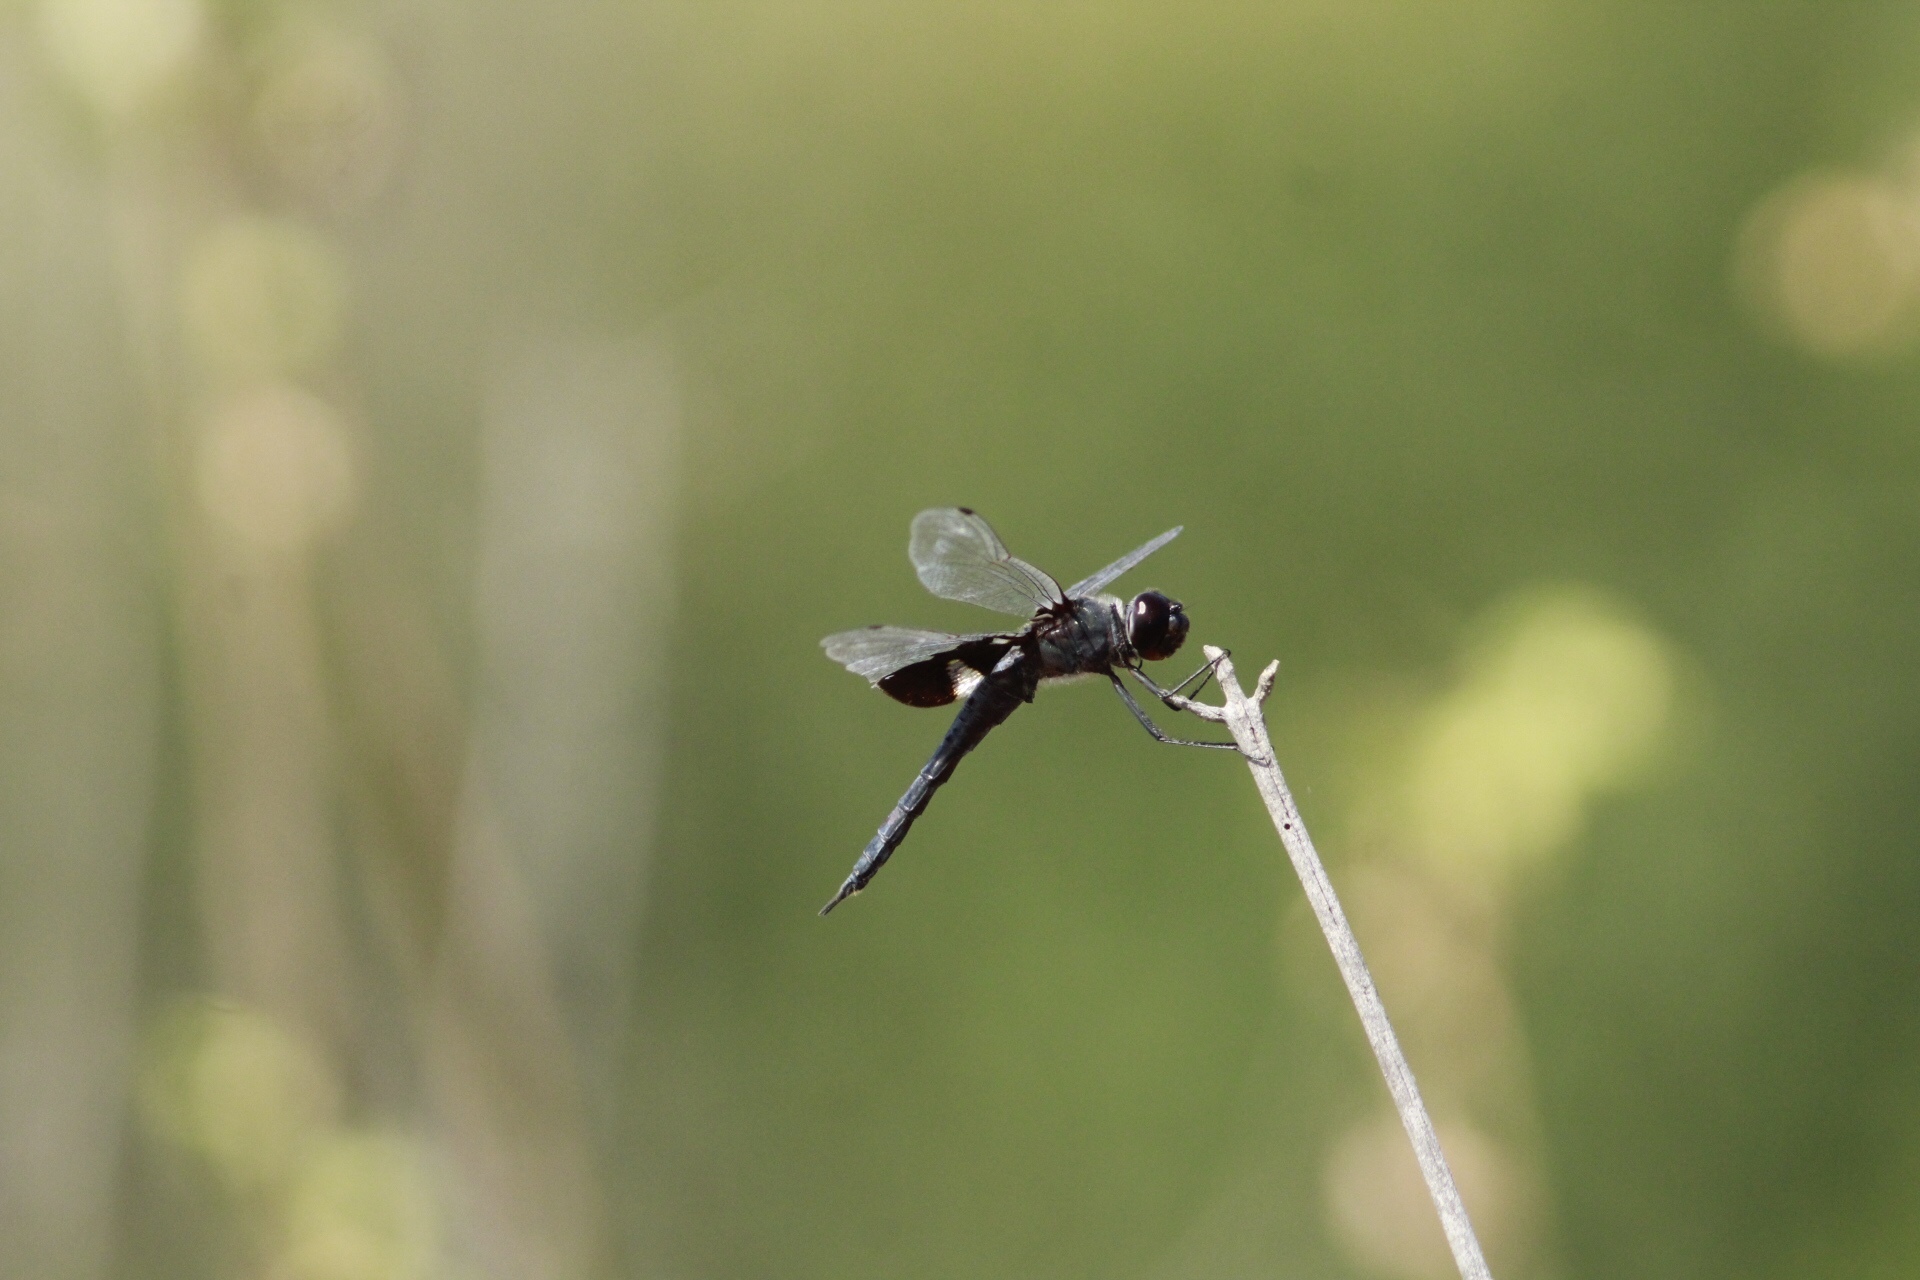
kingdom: Animalia
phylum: Arthropoda
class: Insecta
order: Odonata
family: Libellulidae
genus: Tramea
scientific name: Tramea lacerata
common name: Black saddlebags
